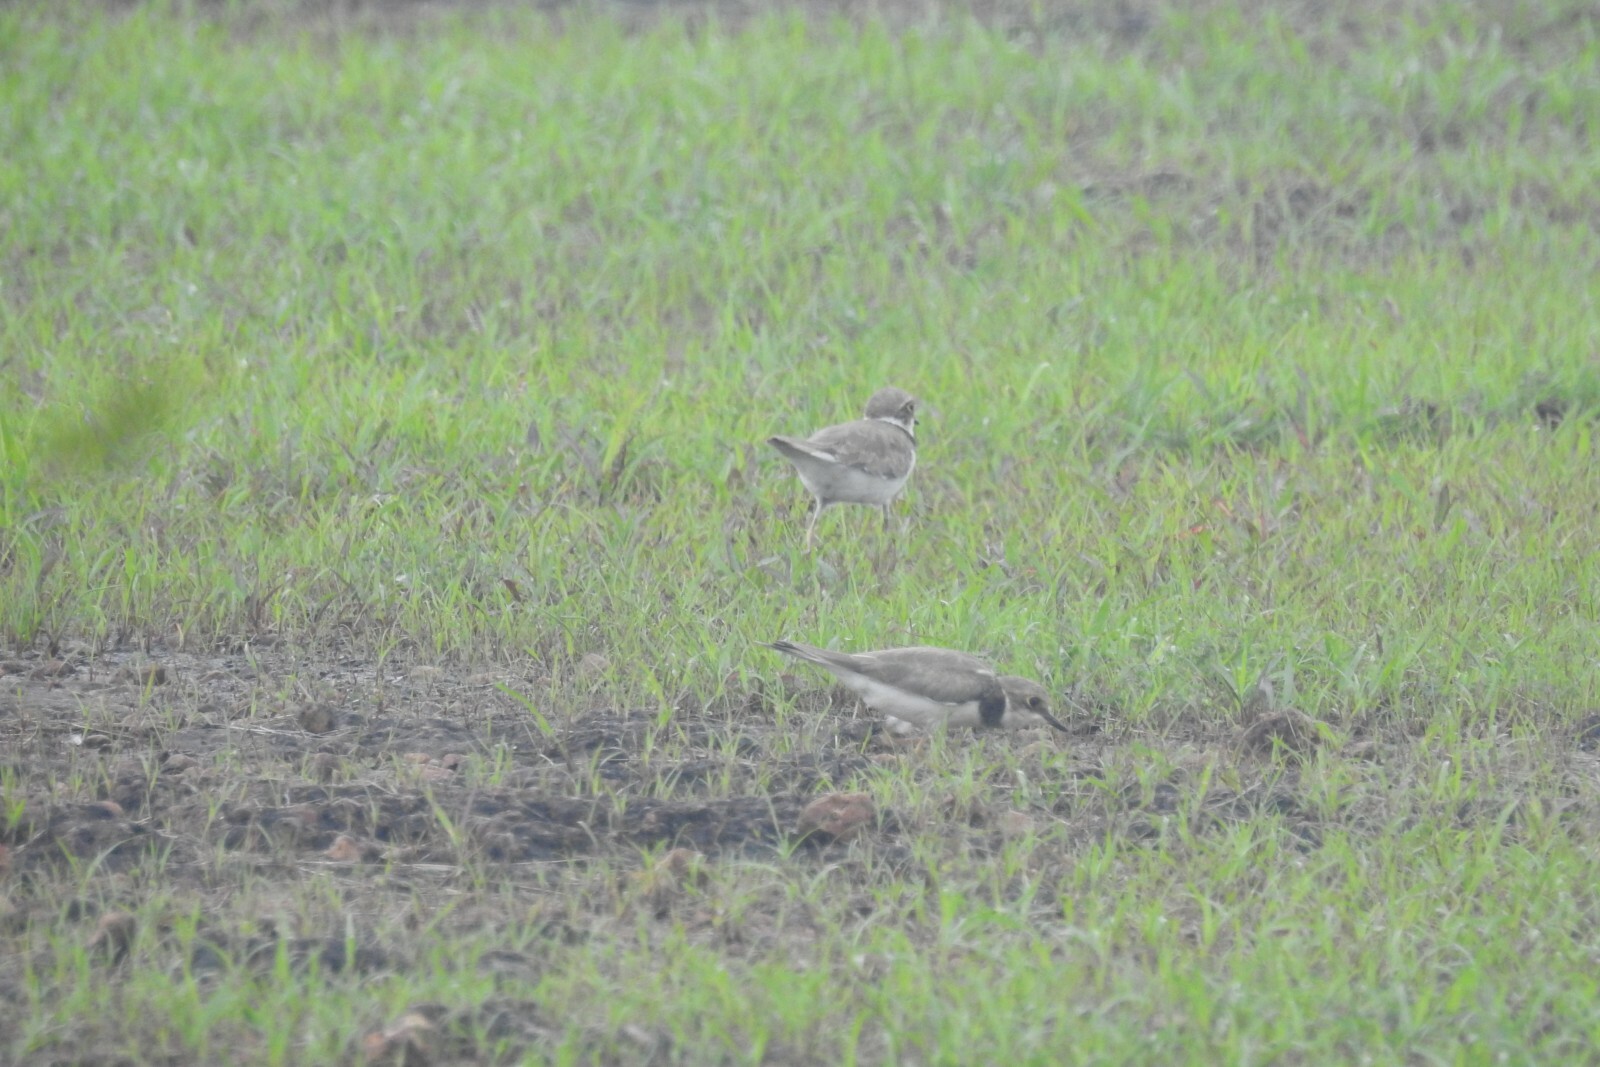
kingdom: Animalia
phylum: Chordata
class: Aves
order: Charadriiformes
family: Charadriidae
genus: Charadrius
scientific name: Charadrius dubius
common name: Little ringed plover
